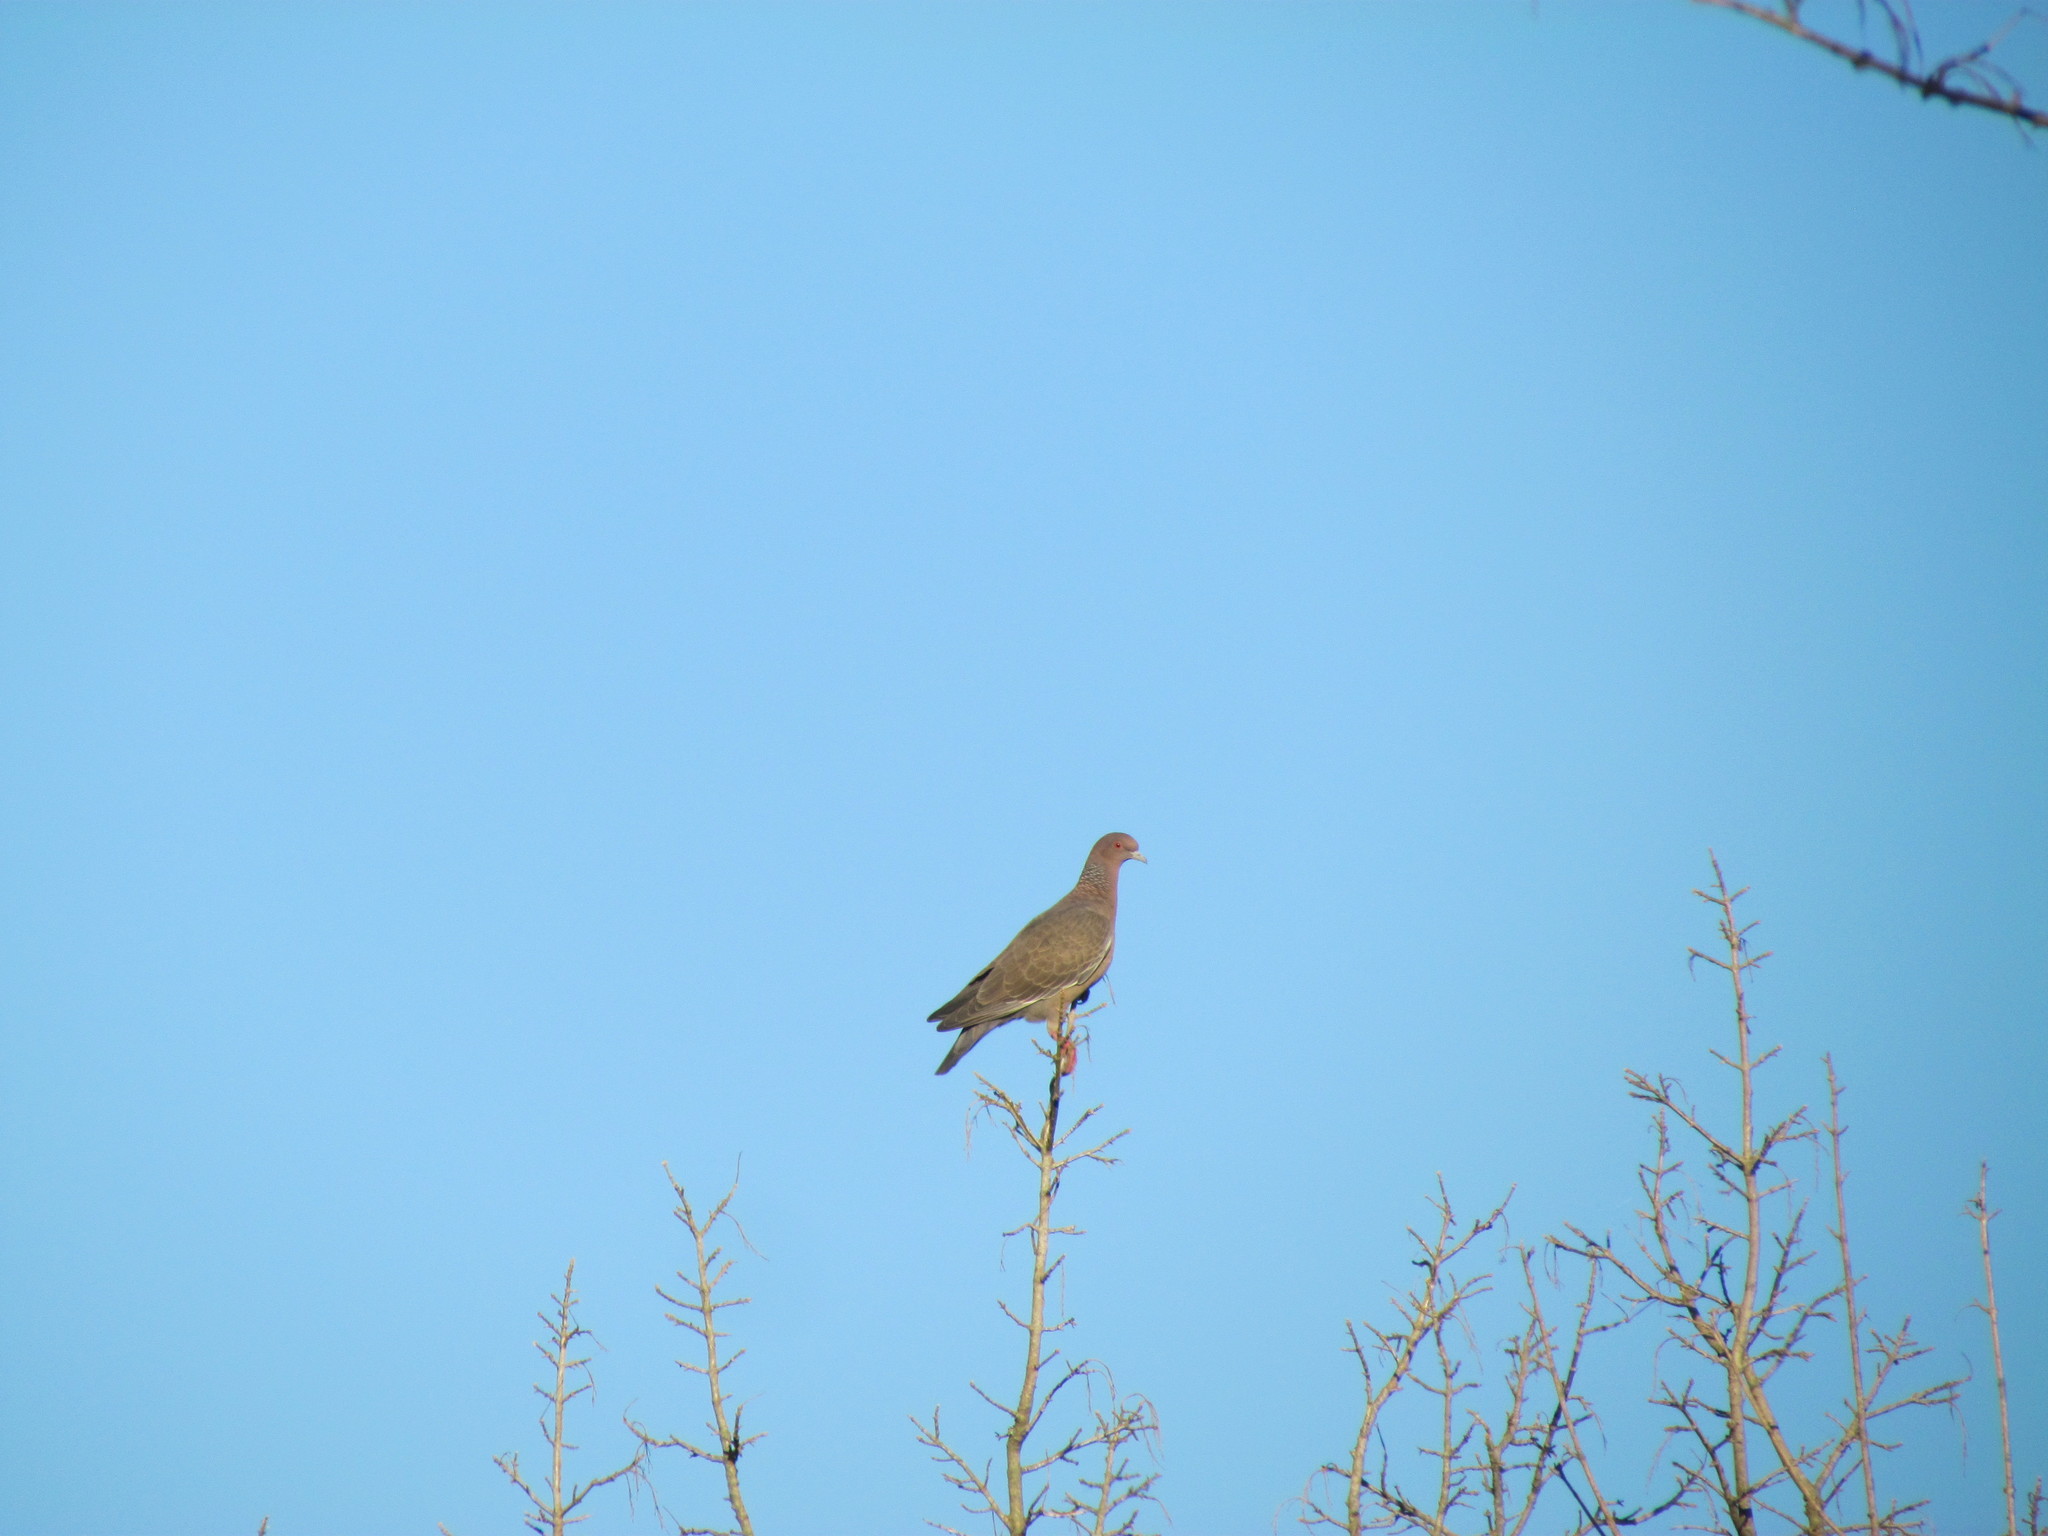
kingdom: Animalia
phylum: Chordata
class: Aves
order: Columbiformes
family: Columbidae
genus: Patagioenas
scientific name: Patagioenas picazuro
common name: Picazuro pigeon
